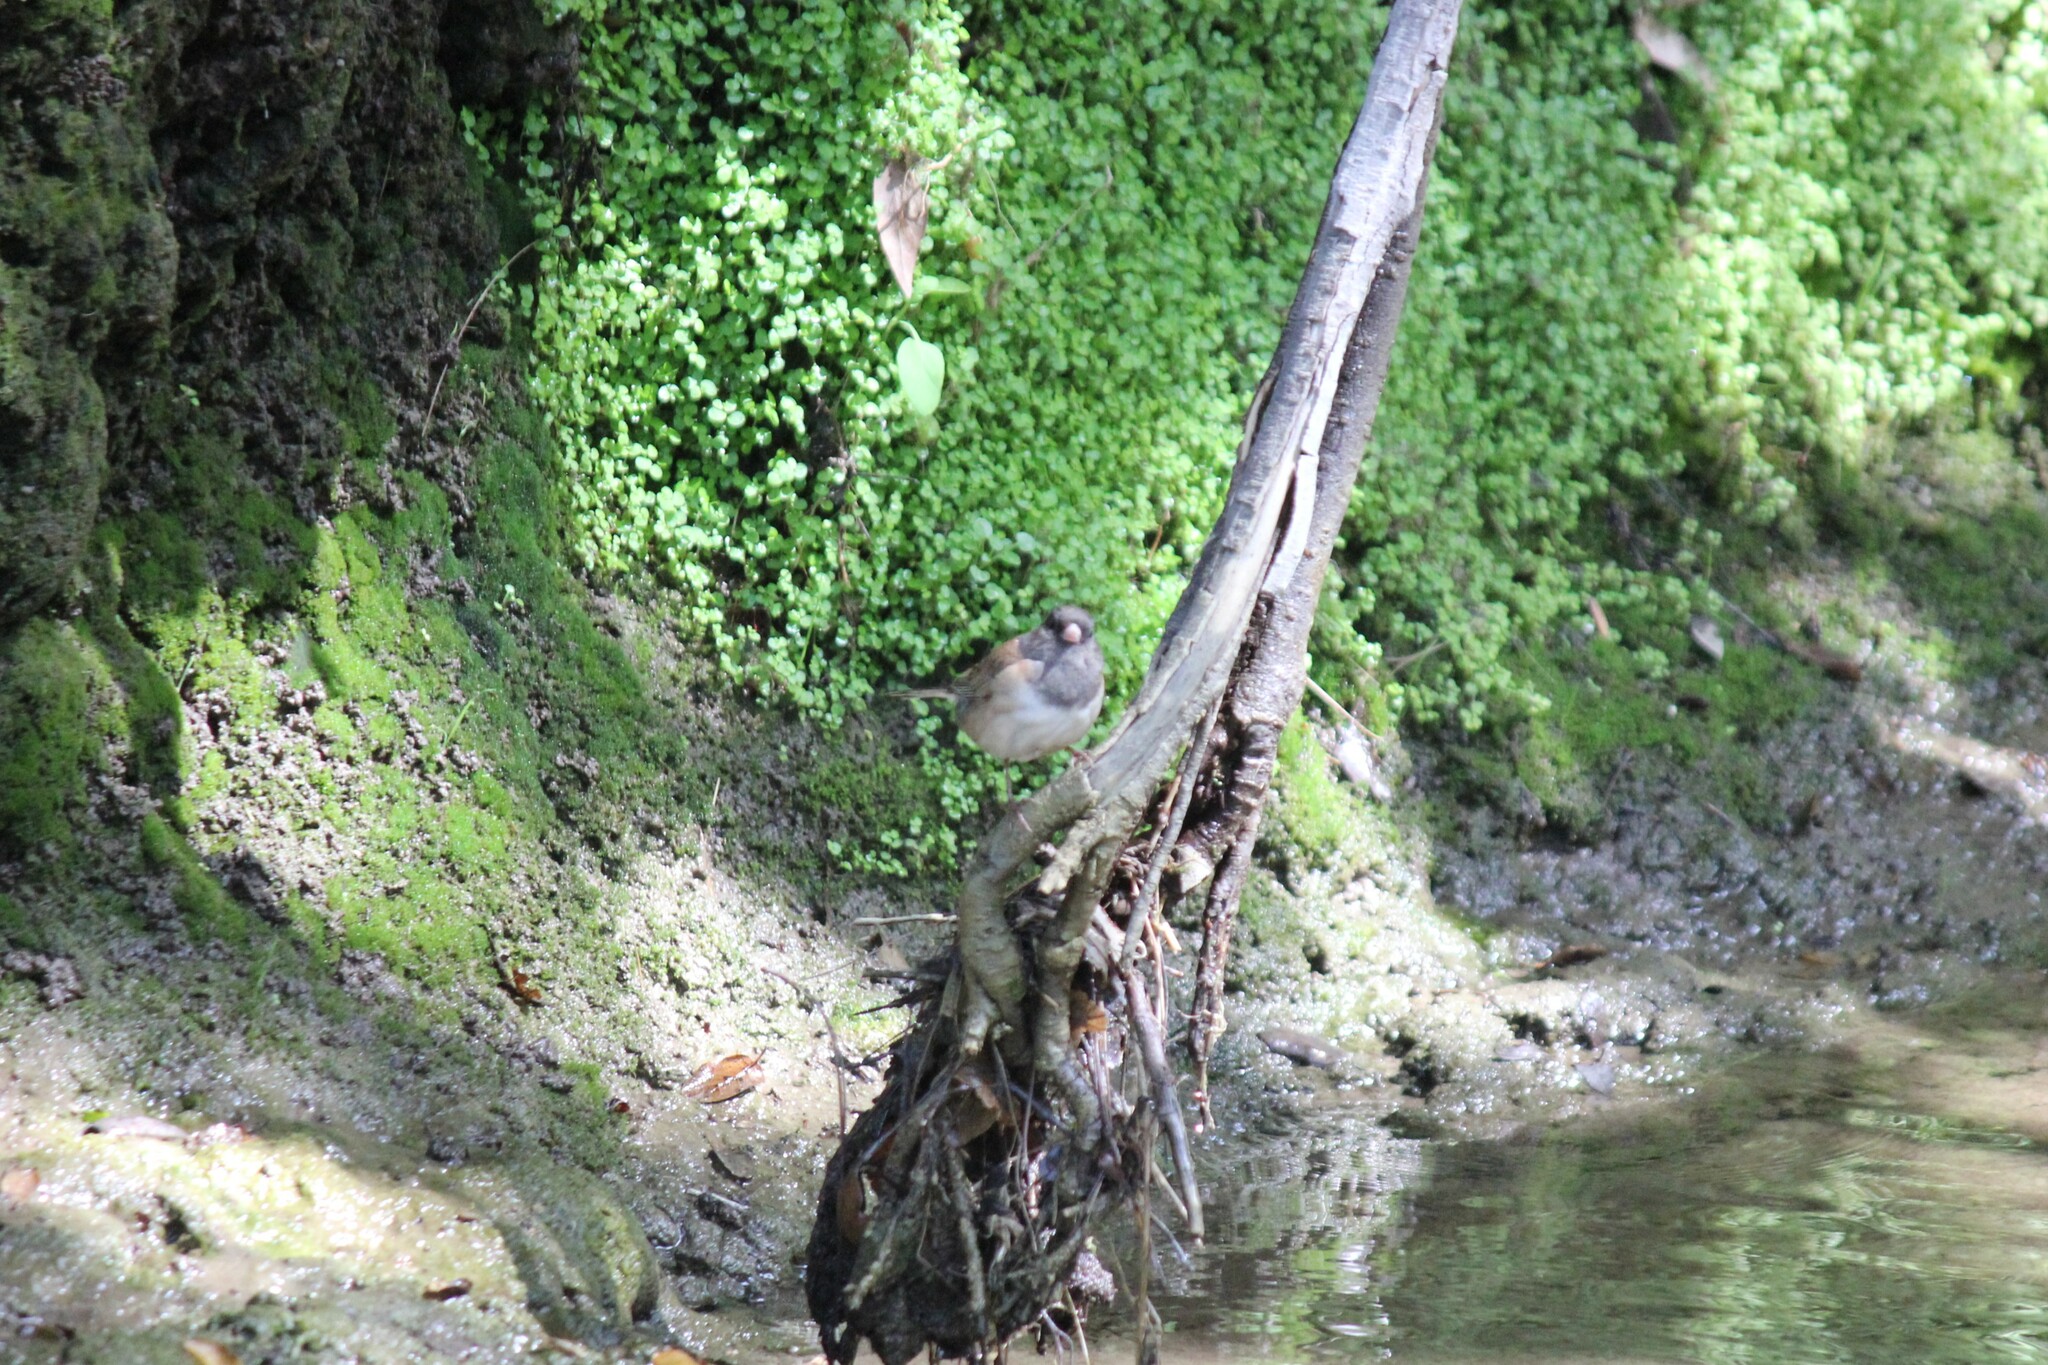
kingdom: Animalia
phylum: Chordata
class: Aves
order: Passeriformes
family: Passerellidae
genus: Junco
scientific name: Junco hyemalis
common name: Dark-eyed junco
